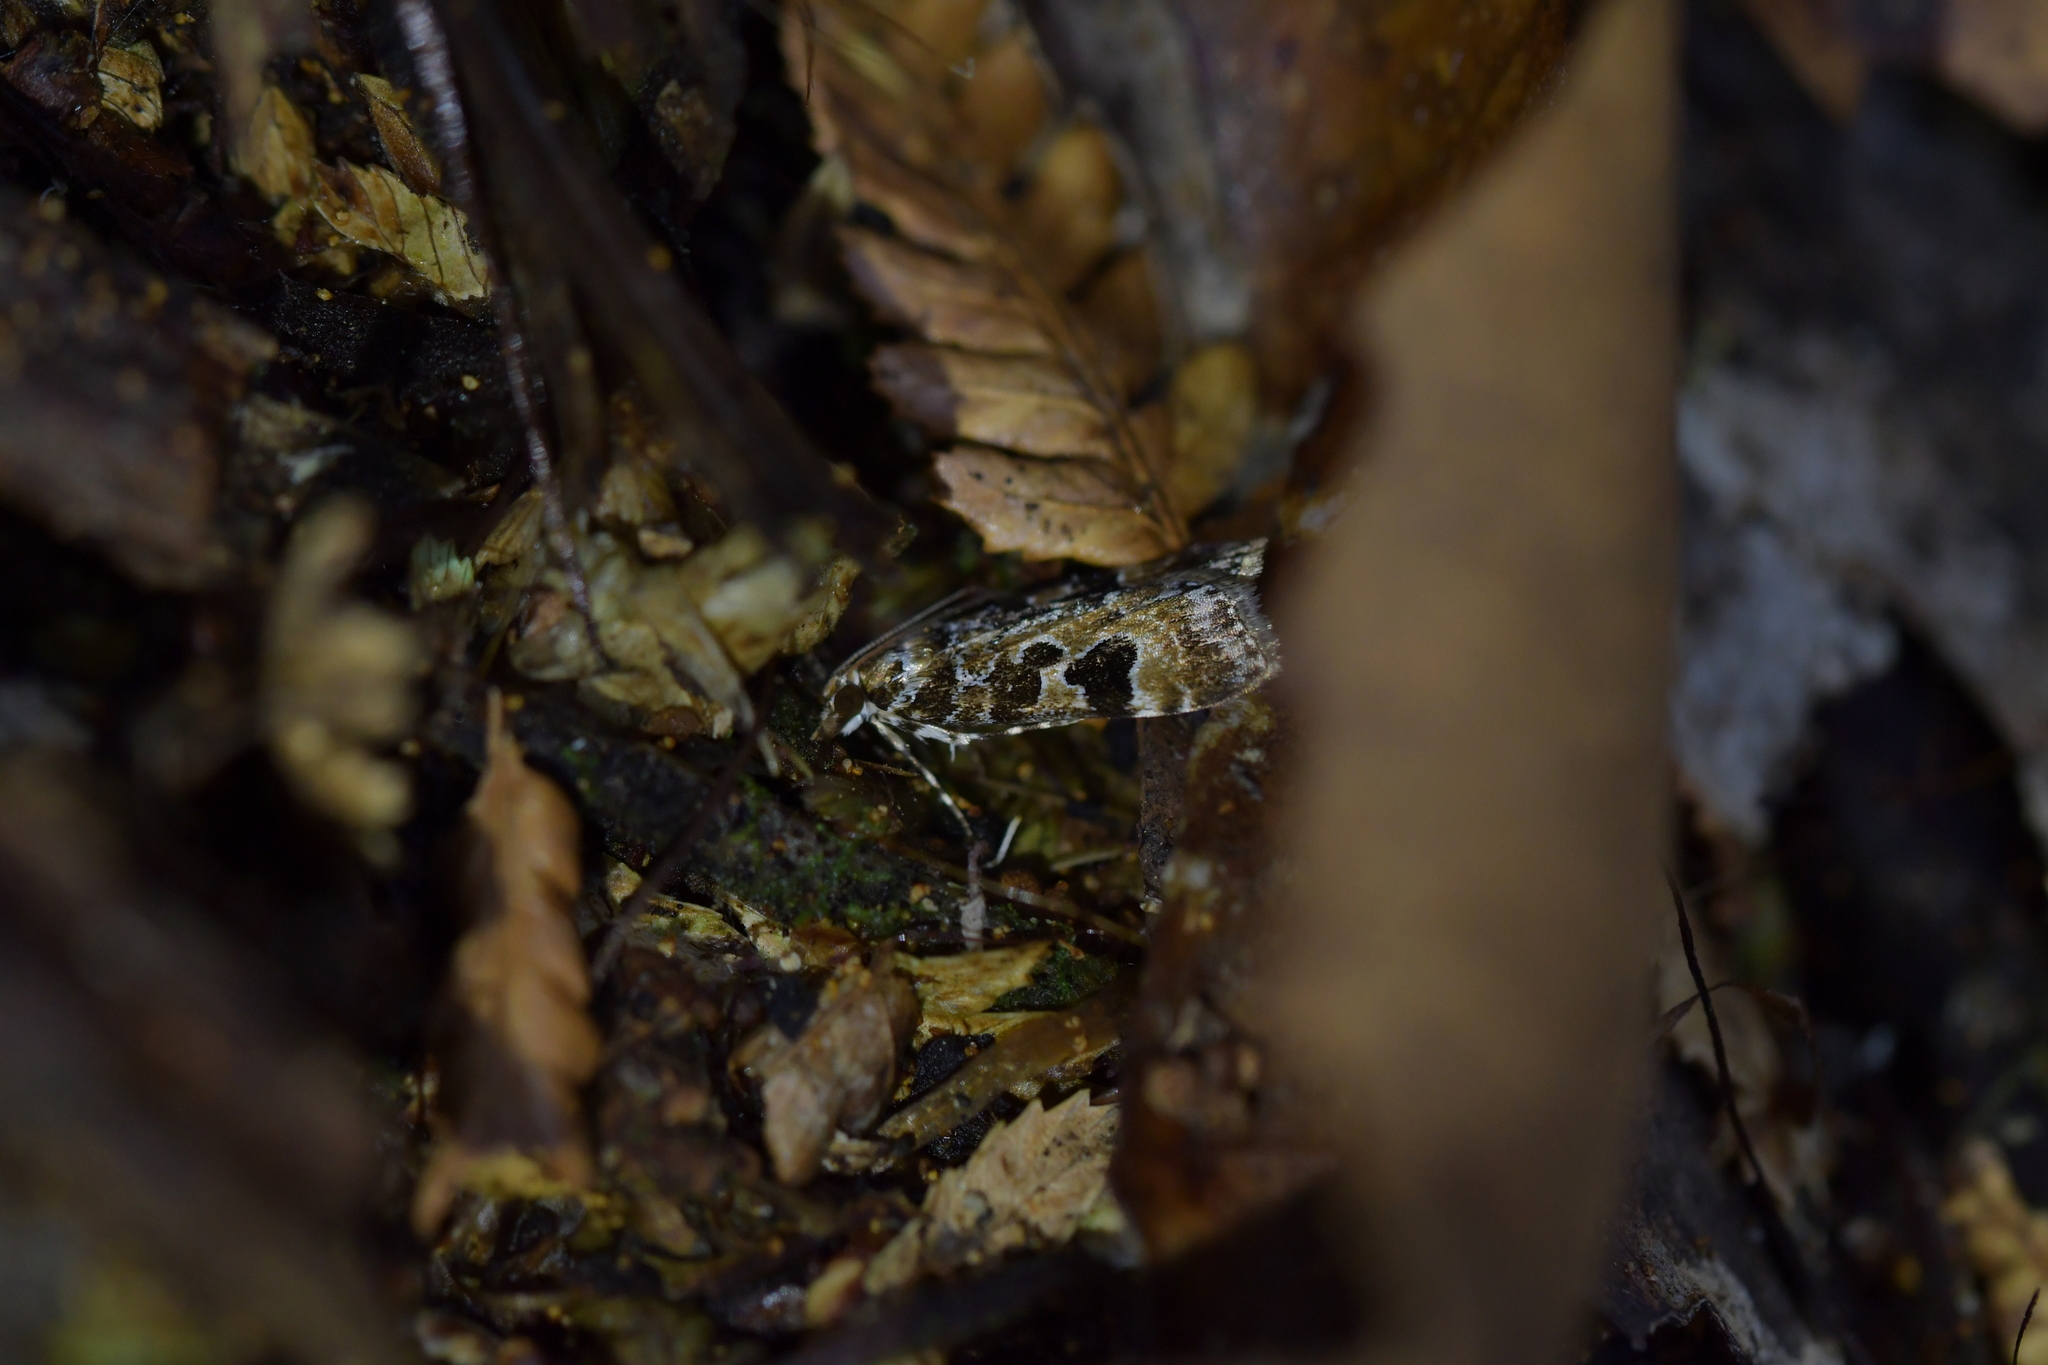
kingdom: Animalia
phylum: Arthropoda
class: Insecta
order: Lepidoptera
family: Crambidae
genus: Scoparia
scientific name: Scoparia ustimacula
